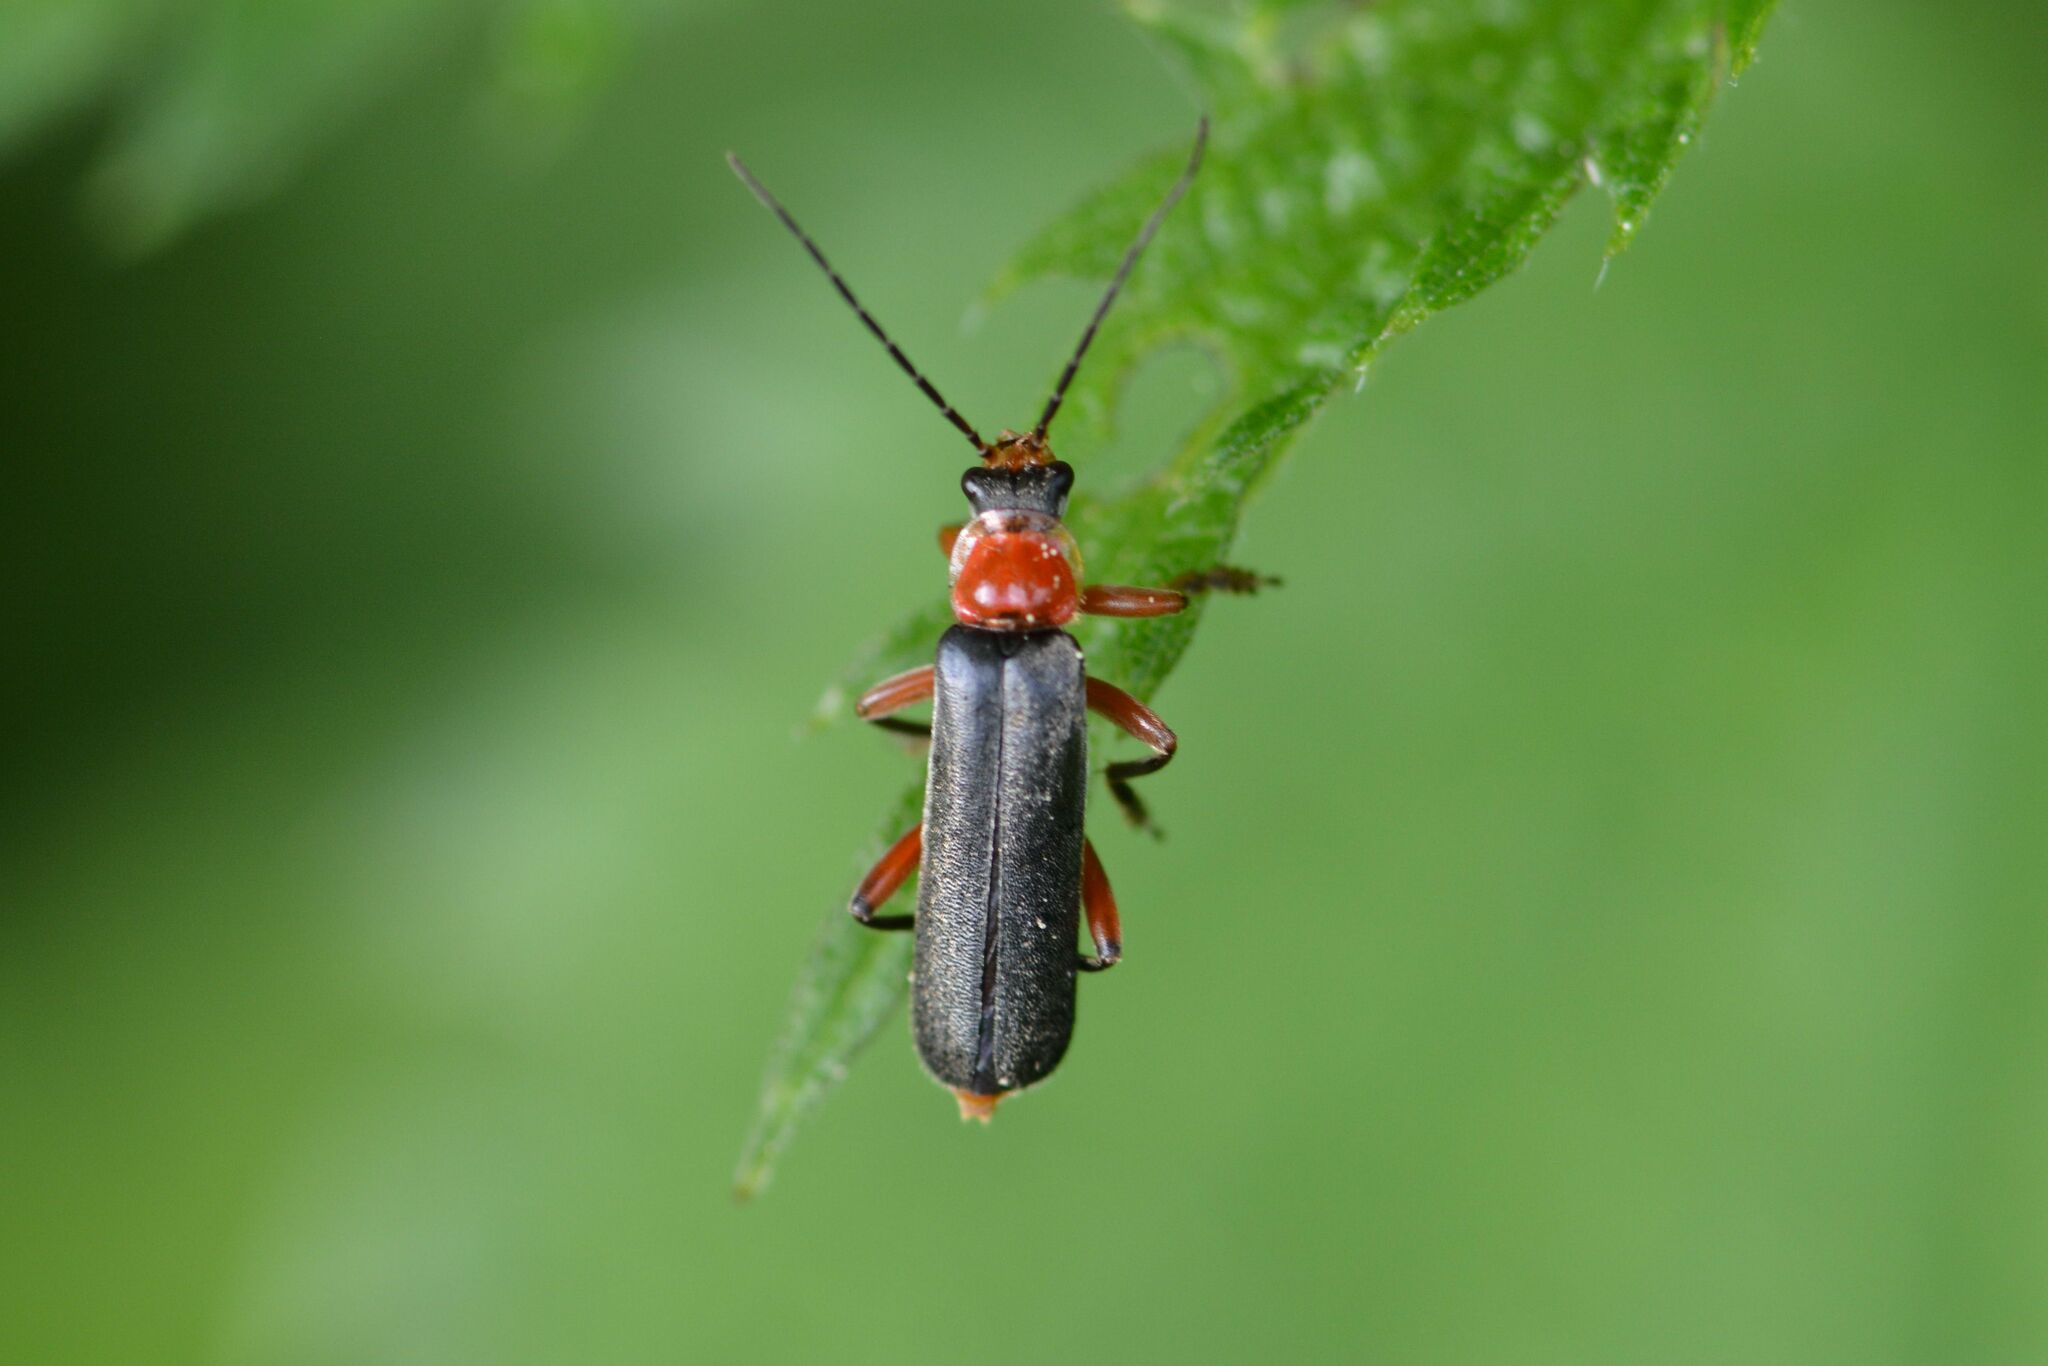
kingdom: Animalia
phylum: Arthropoda
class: Insecta
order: Coleoptera
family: Cantharidae
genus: Cantharis
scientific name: Cantharis pellucida
